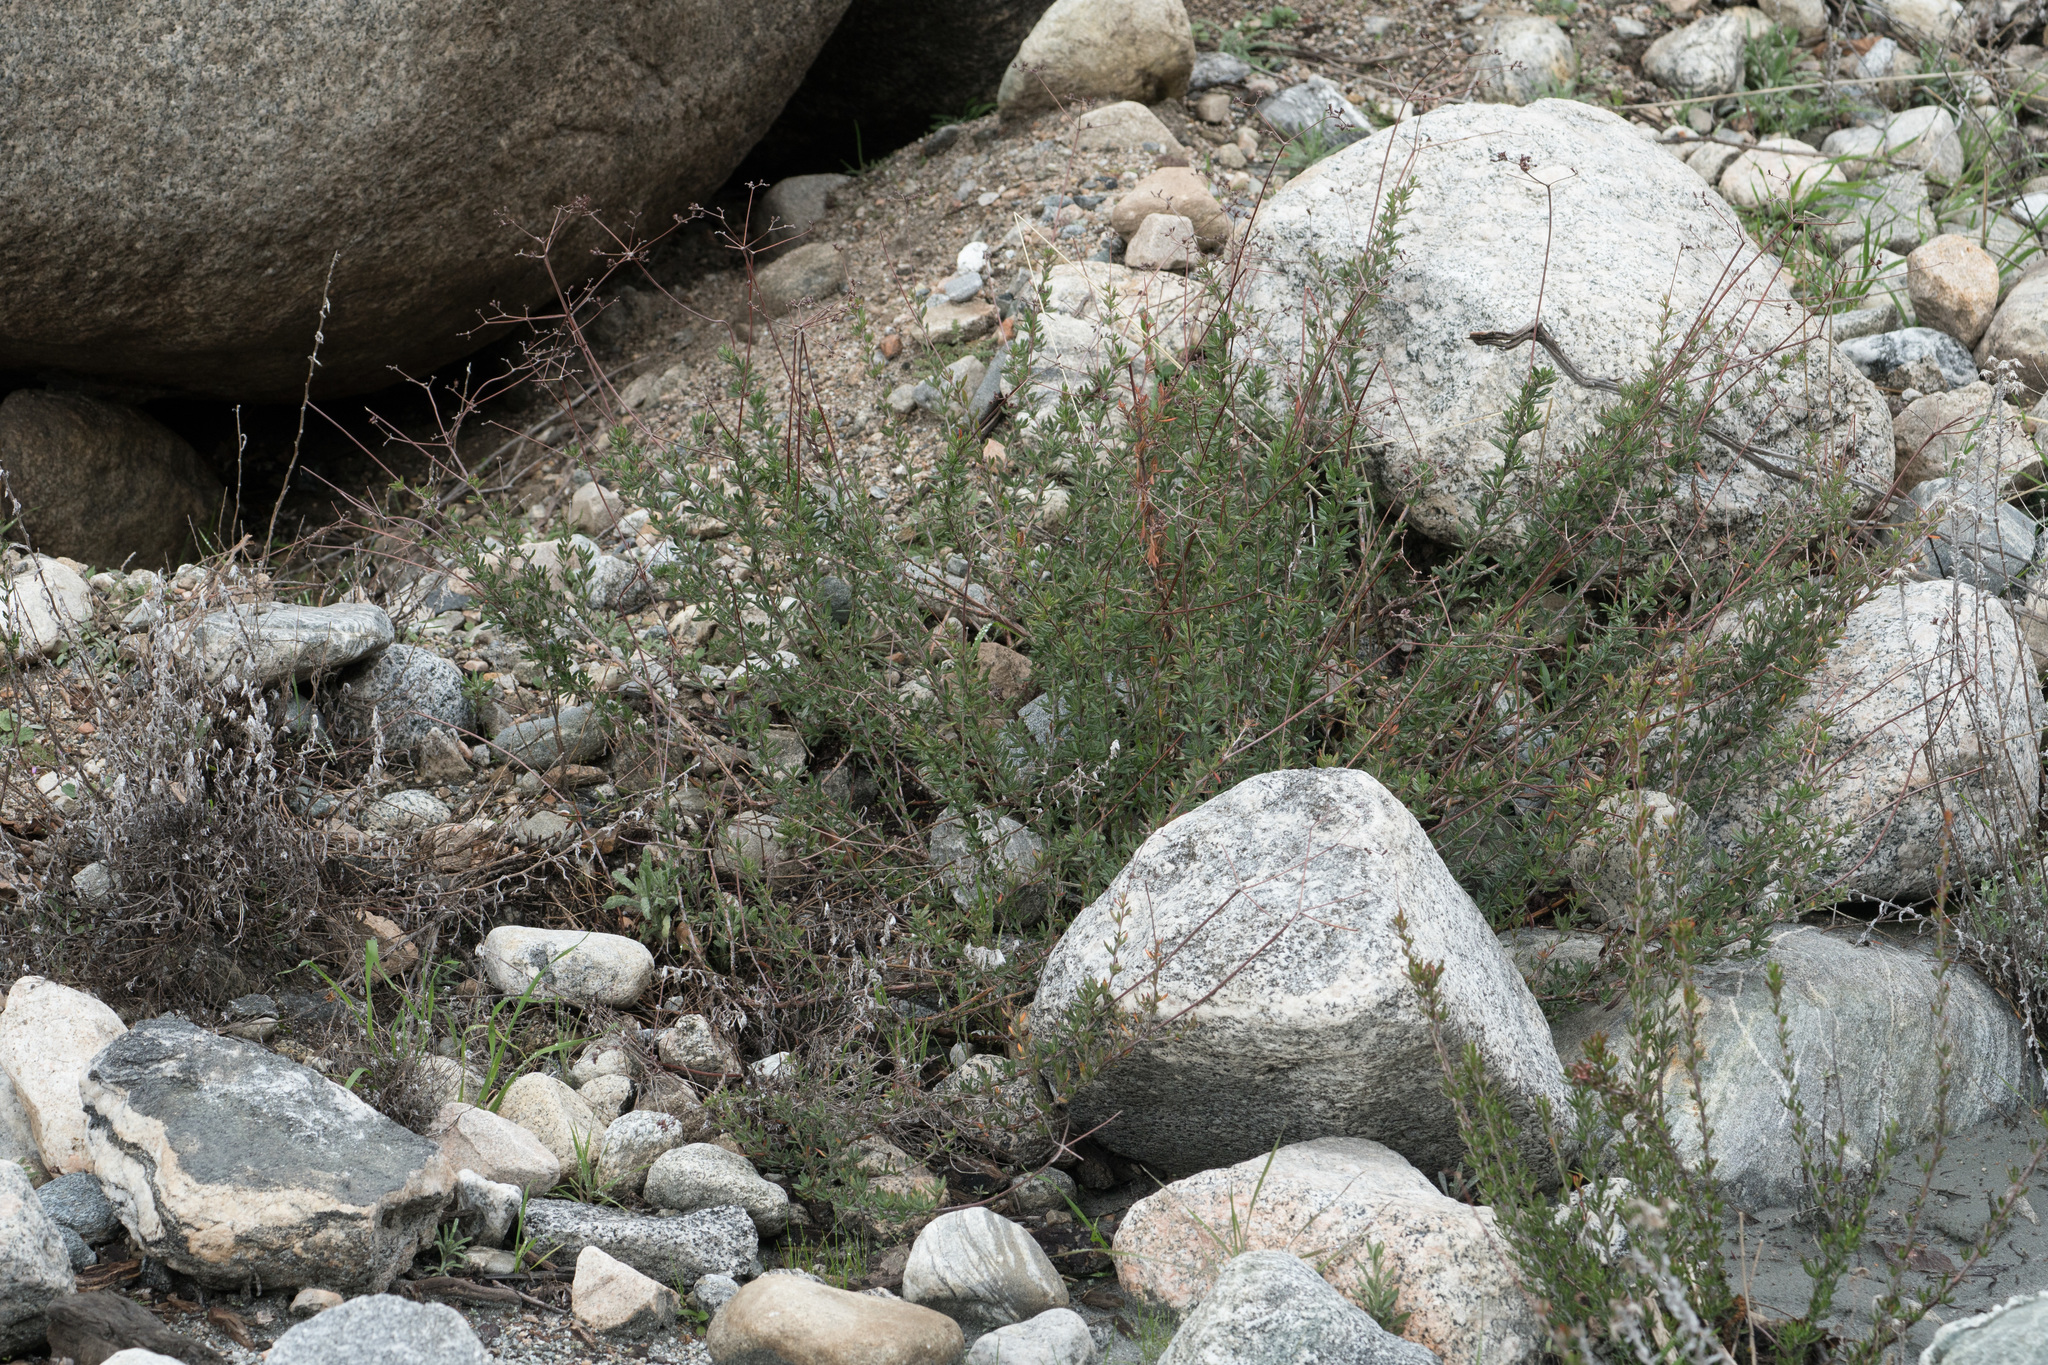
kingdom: Plantae
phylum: Tracheophyta
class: Magnoliopsida
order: Caryophyllales
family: Polygonaceae
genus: Eriogonum
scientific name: Eriogonum fasciculatum
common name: California wild buckwheat
